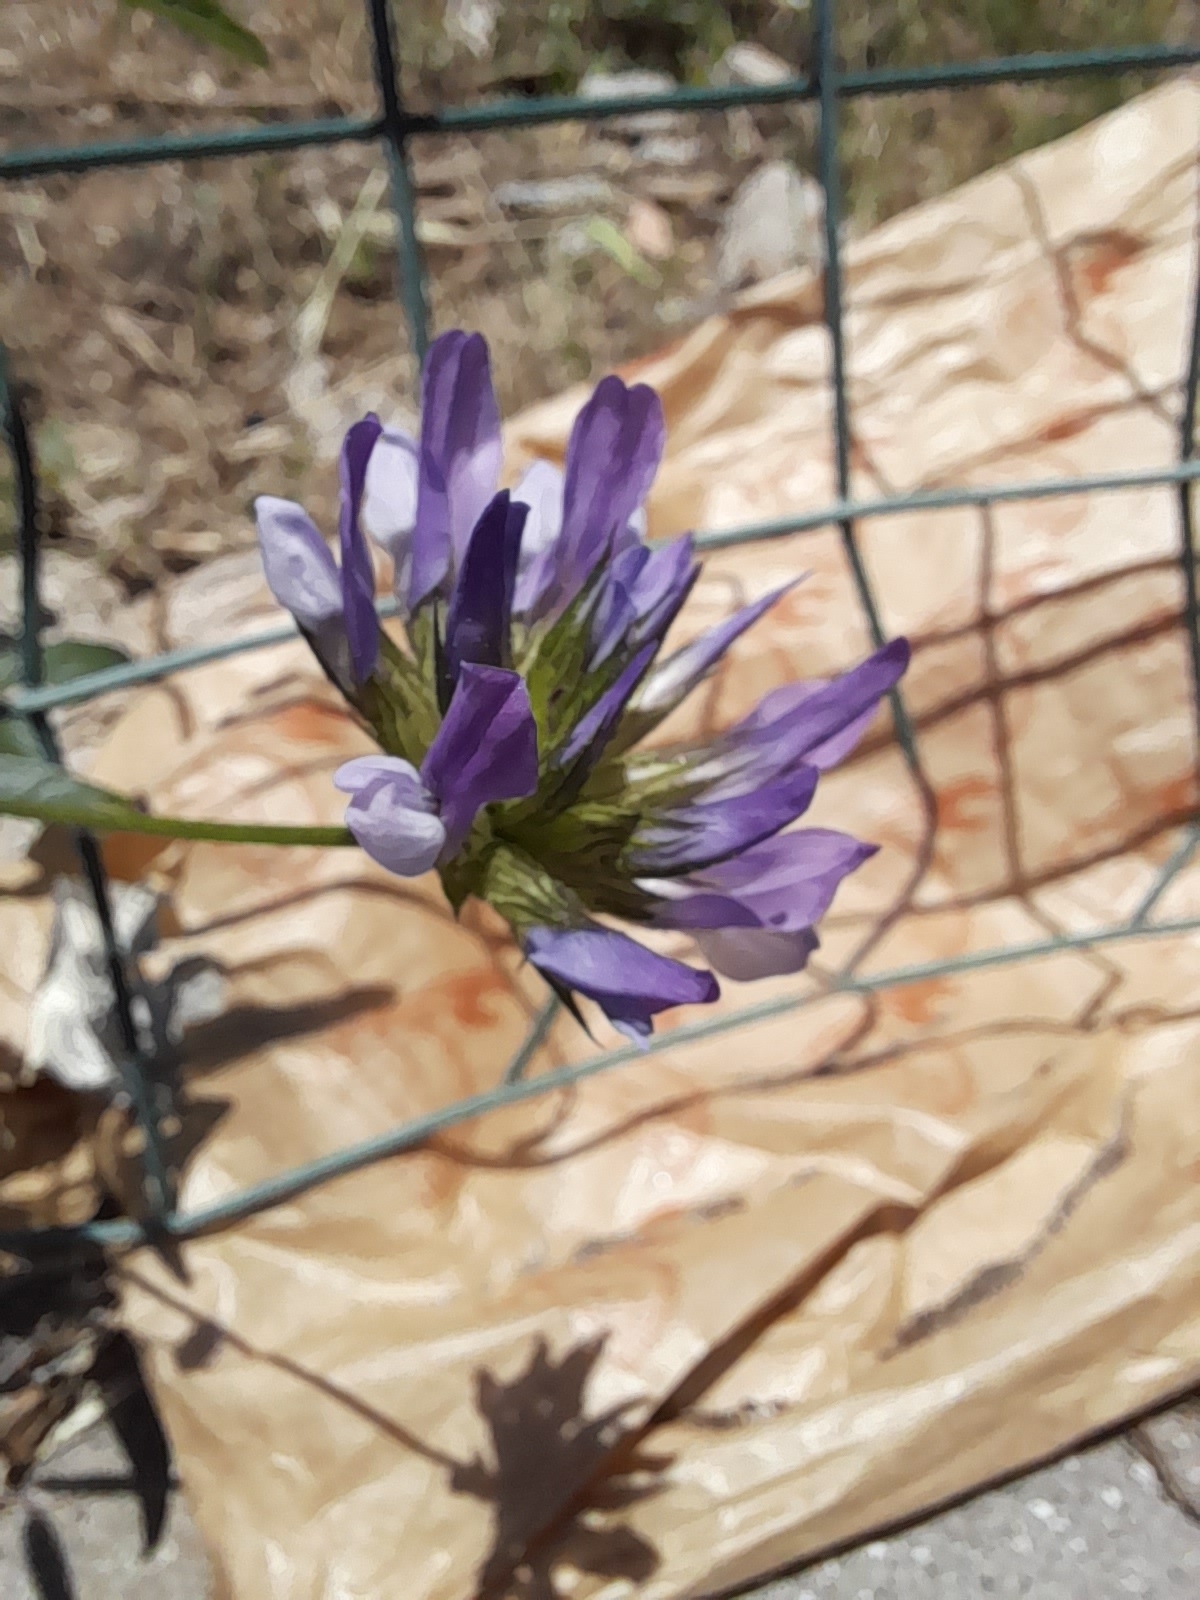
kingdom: Plantae
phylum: Tracheophyta
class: Magnoliopsida
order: Fabales
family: Fabaceae
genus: Bituminaria
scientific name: Bituminaria bituminosa
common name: Arabian pea
